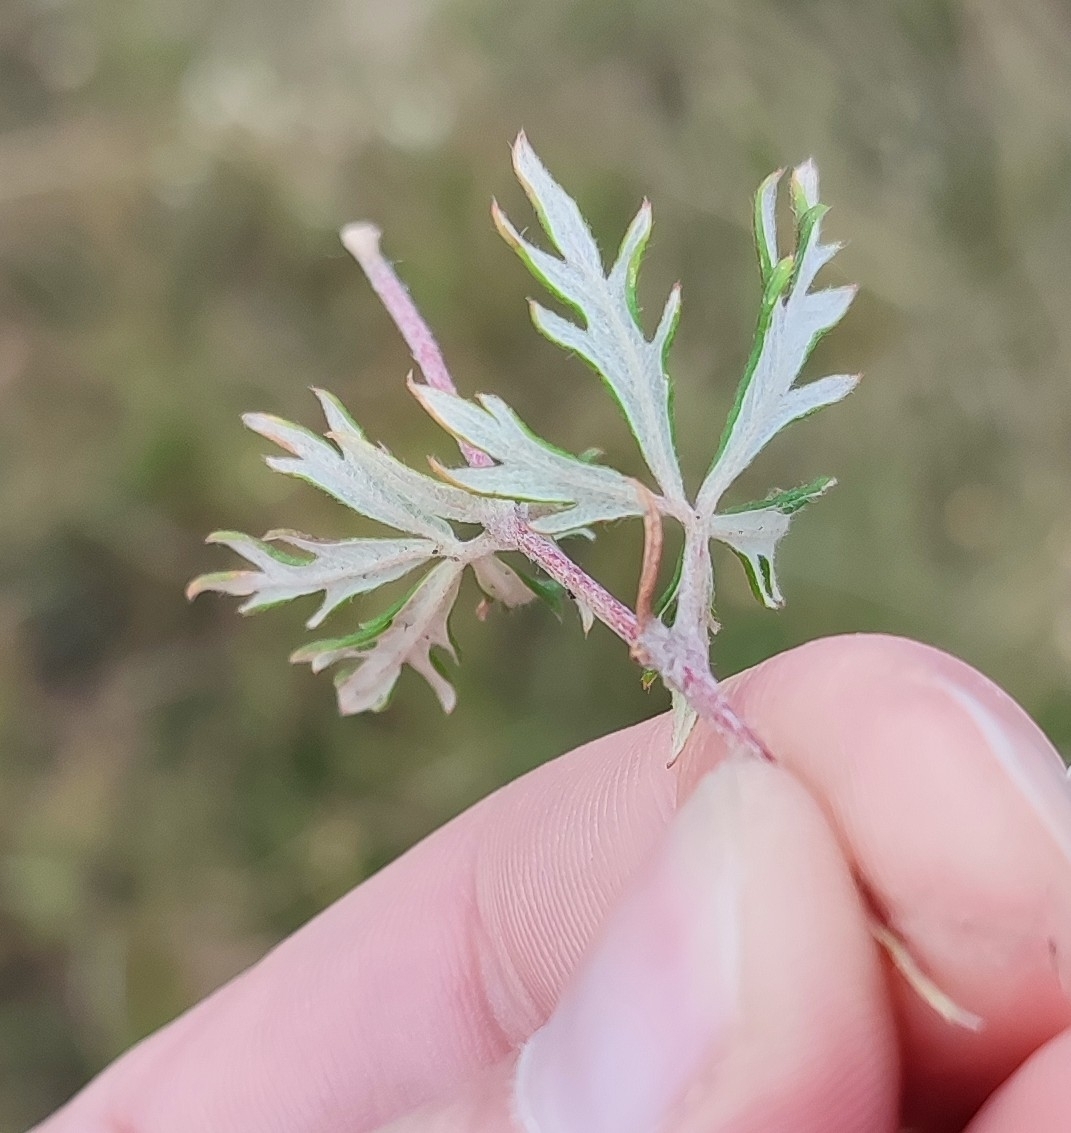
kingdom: Plantae
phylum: Tracheophyta
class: Magnoliopsida
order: Rosales
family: Rosaceae
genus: Potentilla
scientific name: Potentilla argentea
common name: Hoary cinquefoil
